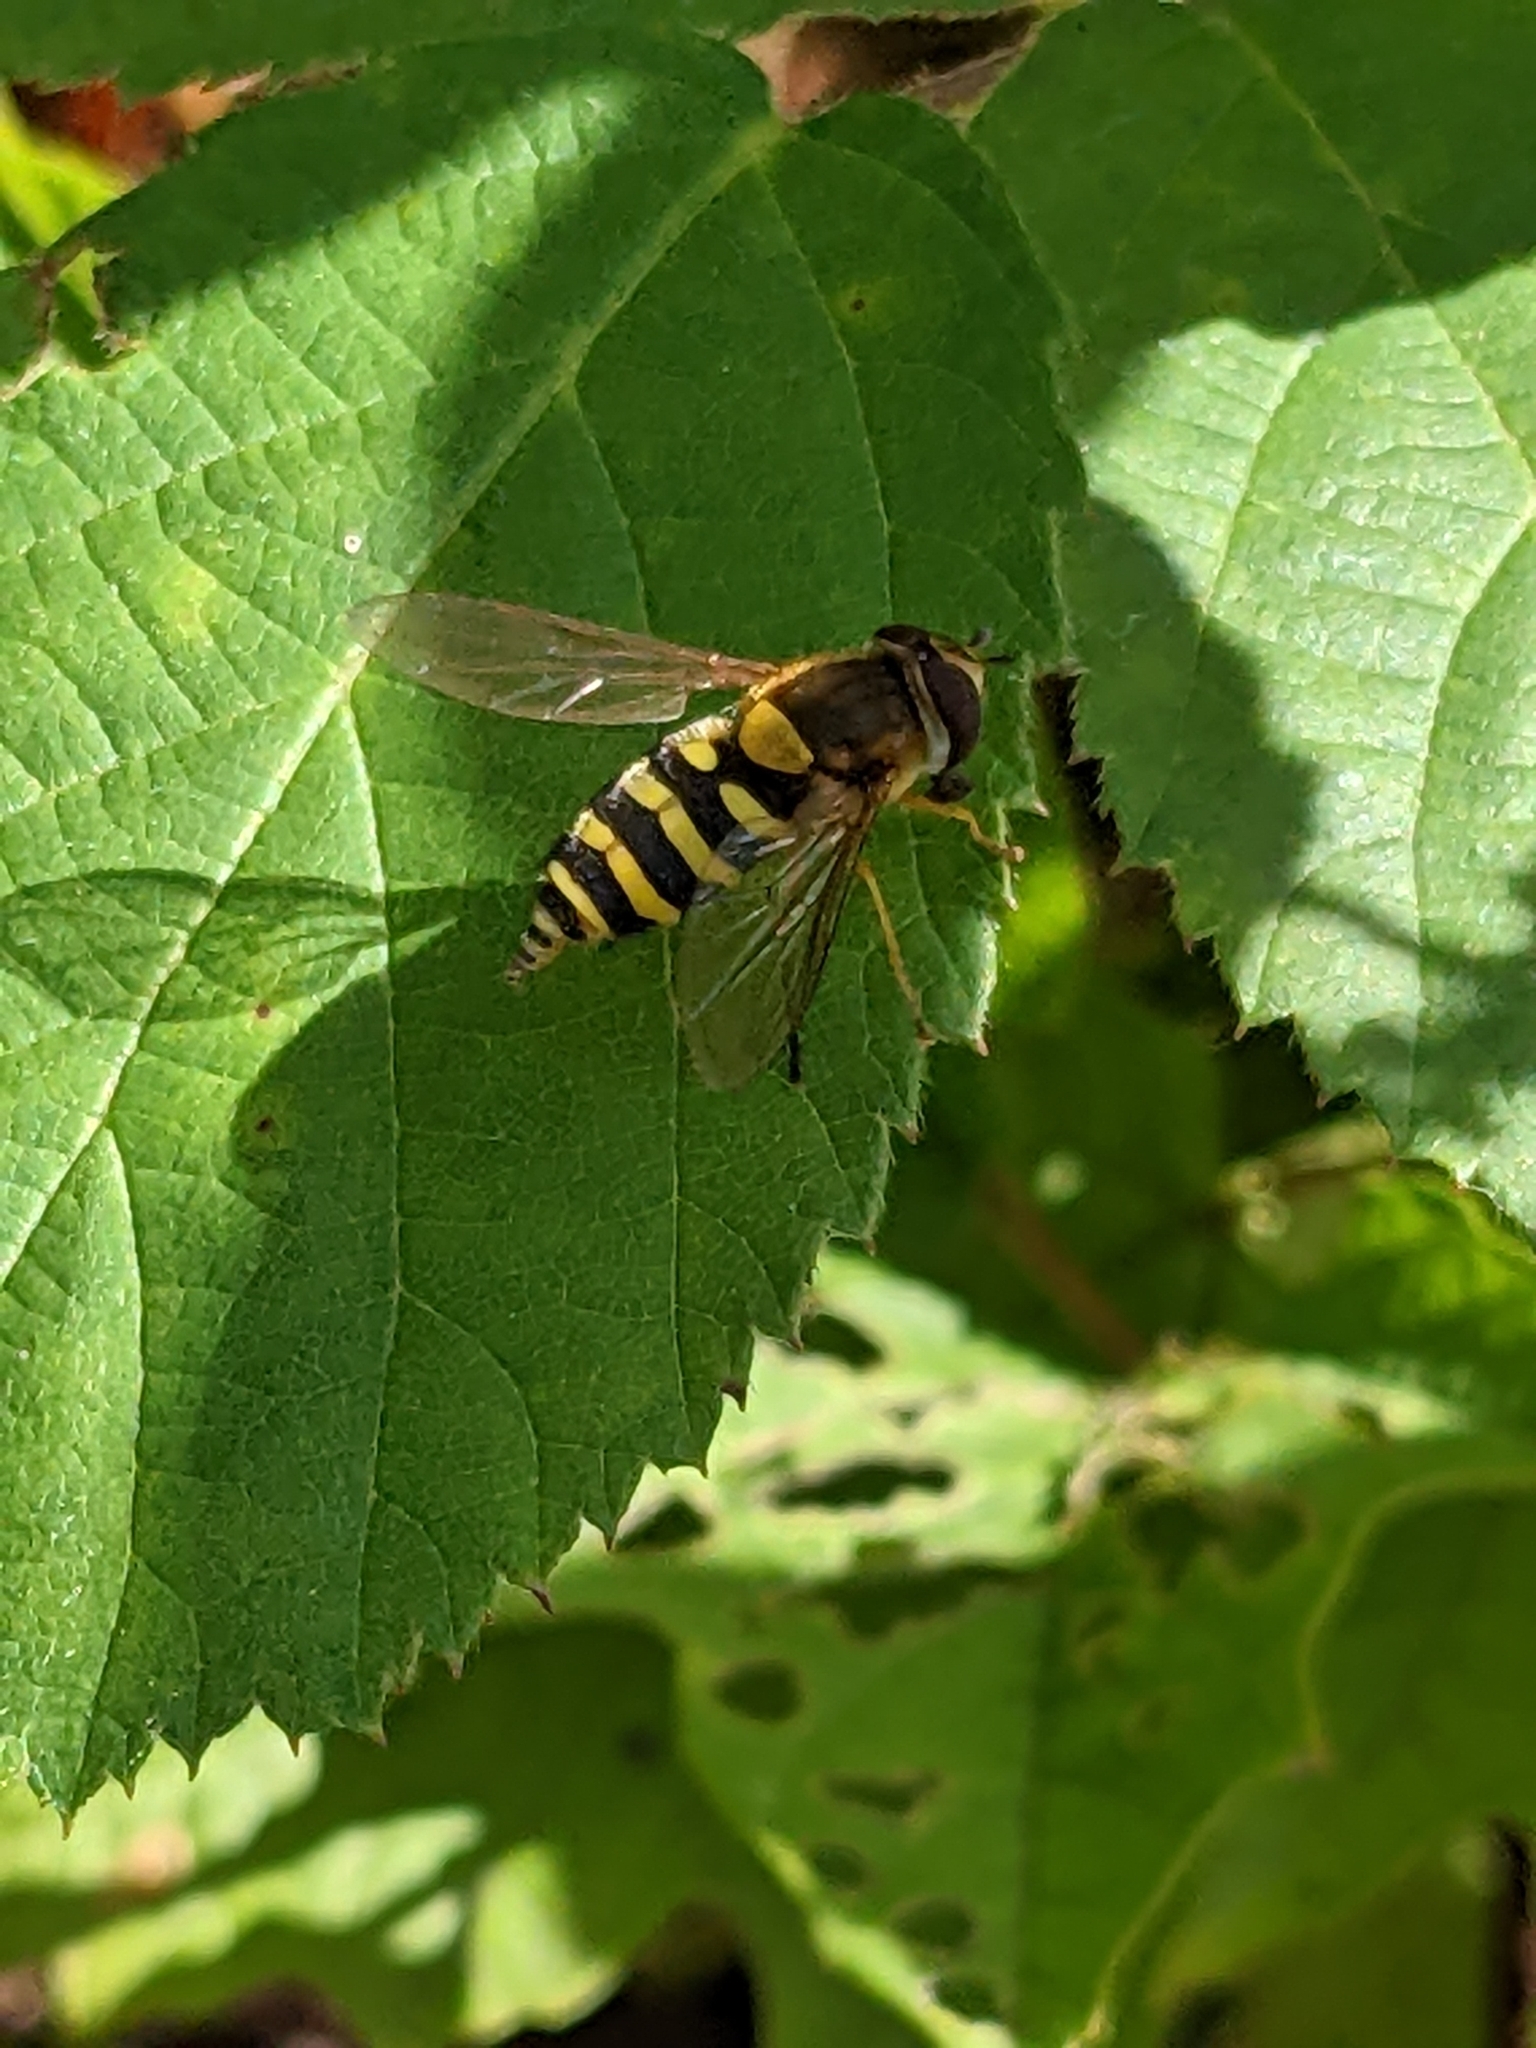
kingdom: Animalia
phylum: Arthropoda
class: Insecta
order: Diptera
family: Syrphidae
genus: Syrphus
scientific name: Syrphus
